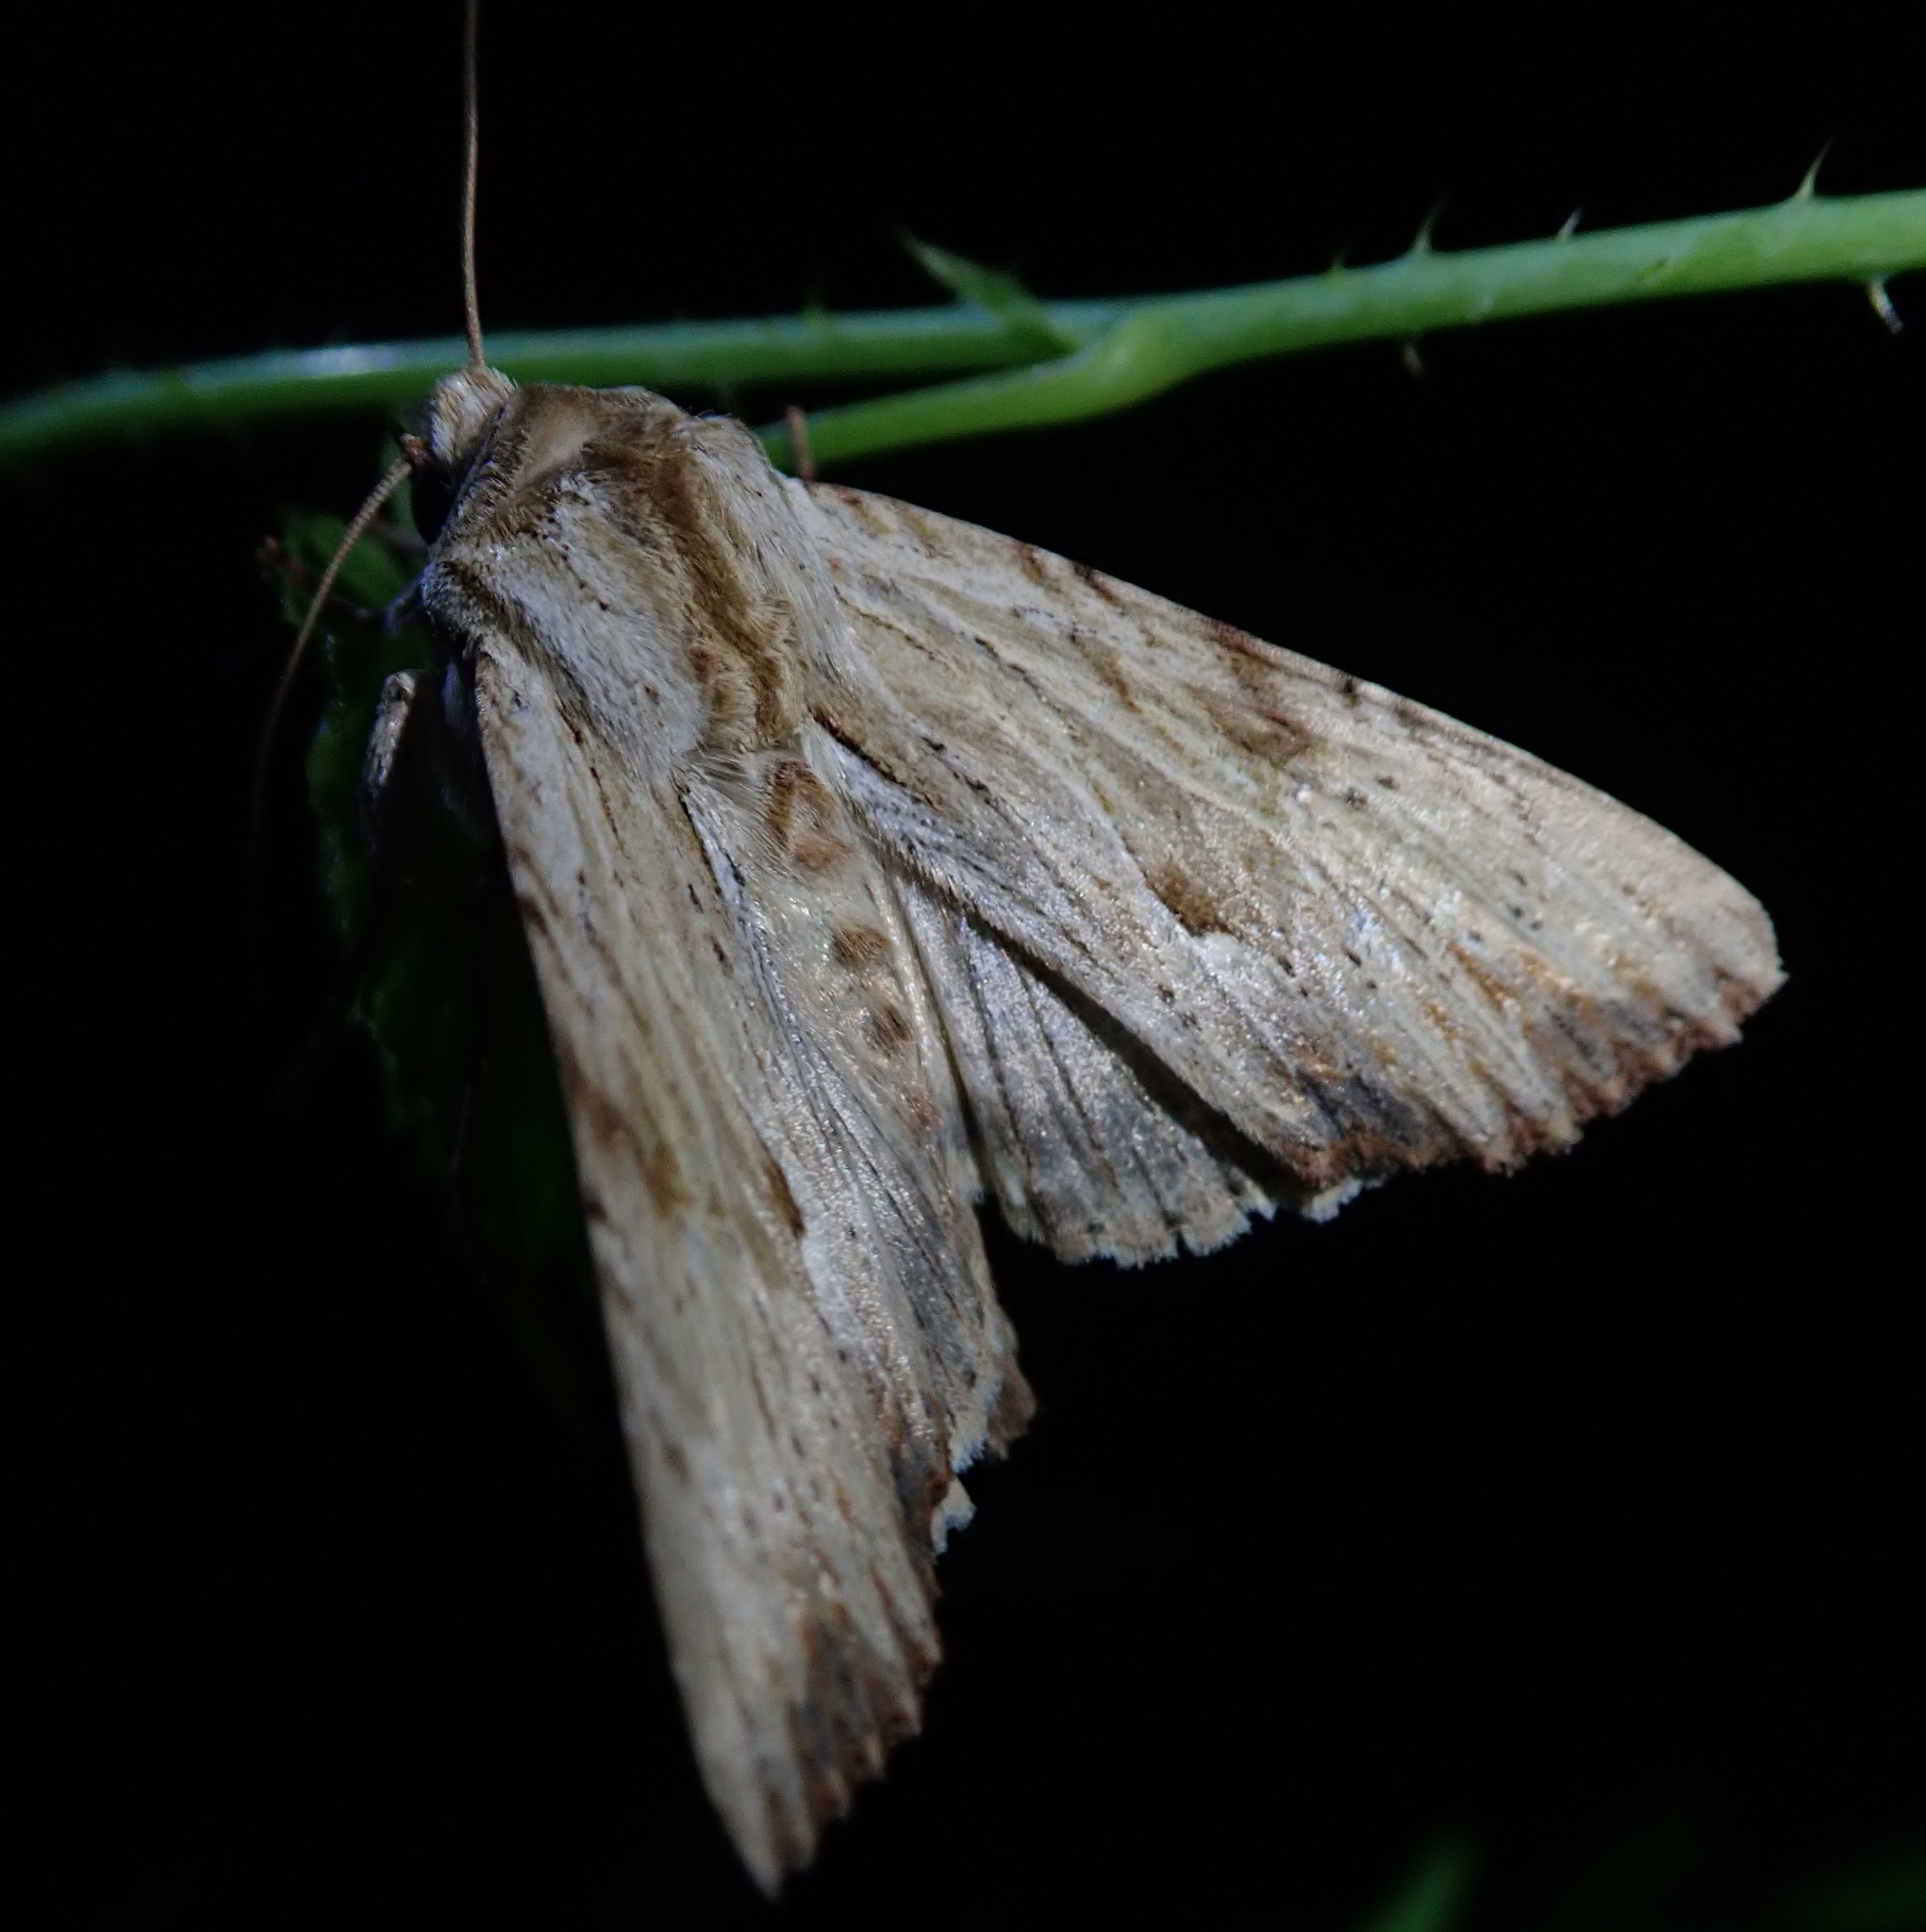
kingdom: Animalia
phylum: Arthropoda
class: Insecta
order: Lepidoptera
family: Noctuidae
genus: Apamea
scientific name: Apamea lithoxylaea
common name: Light arches
